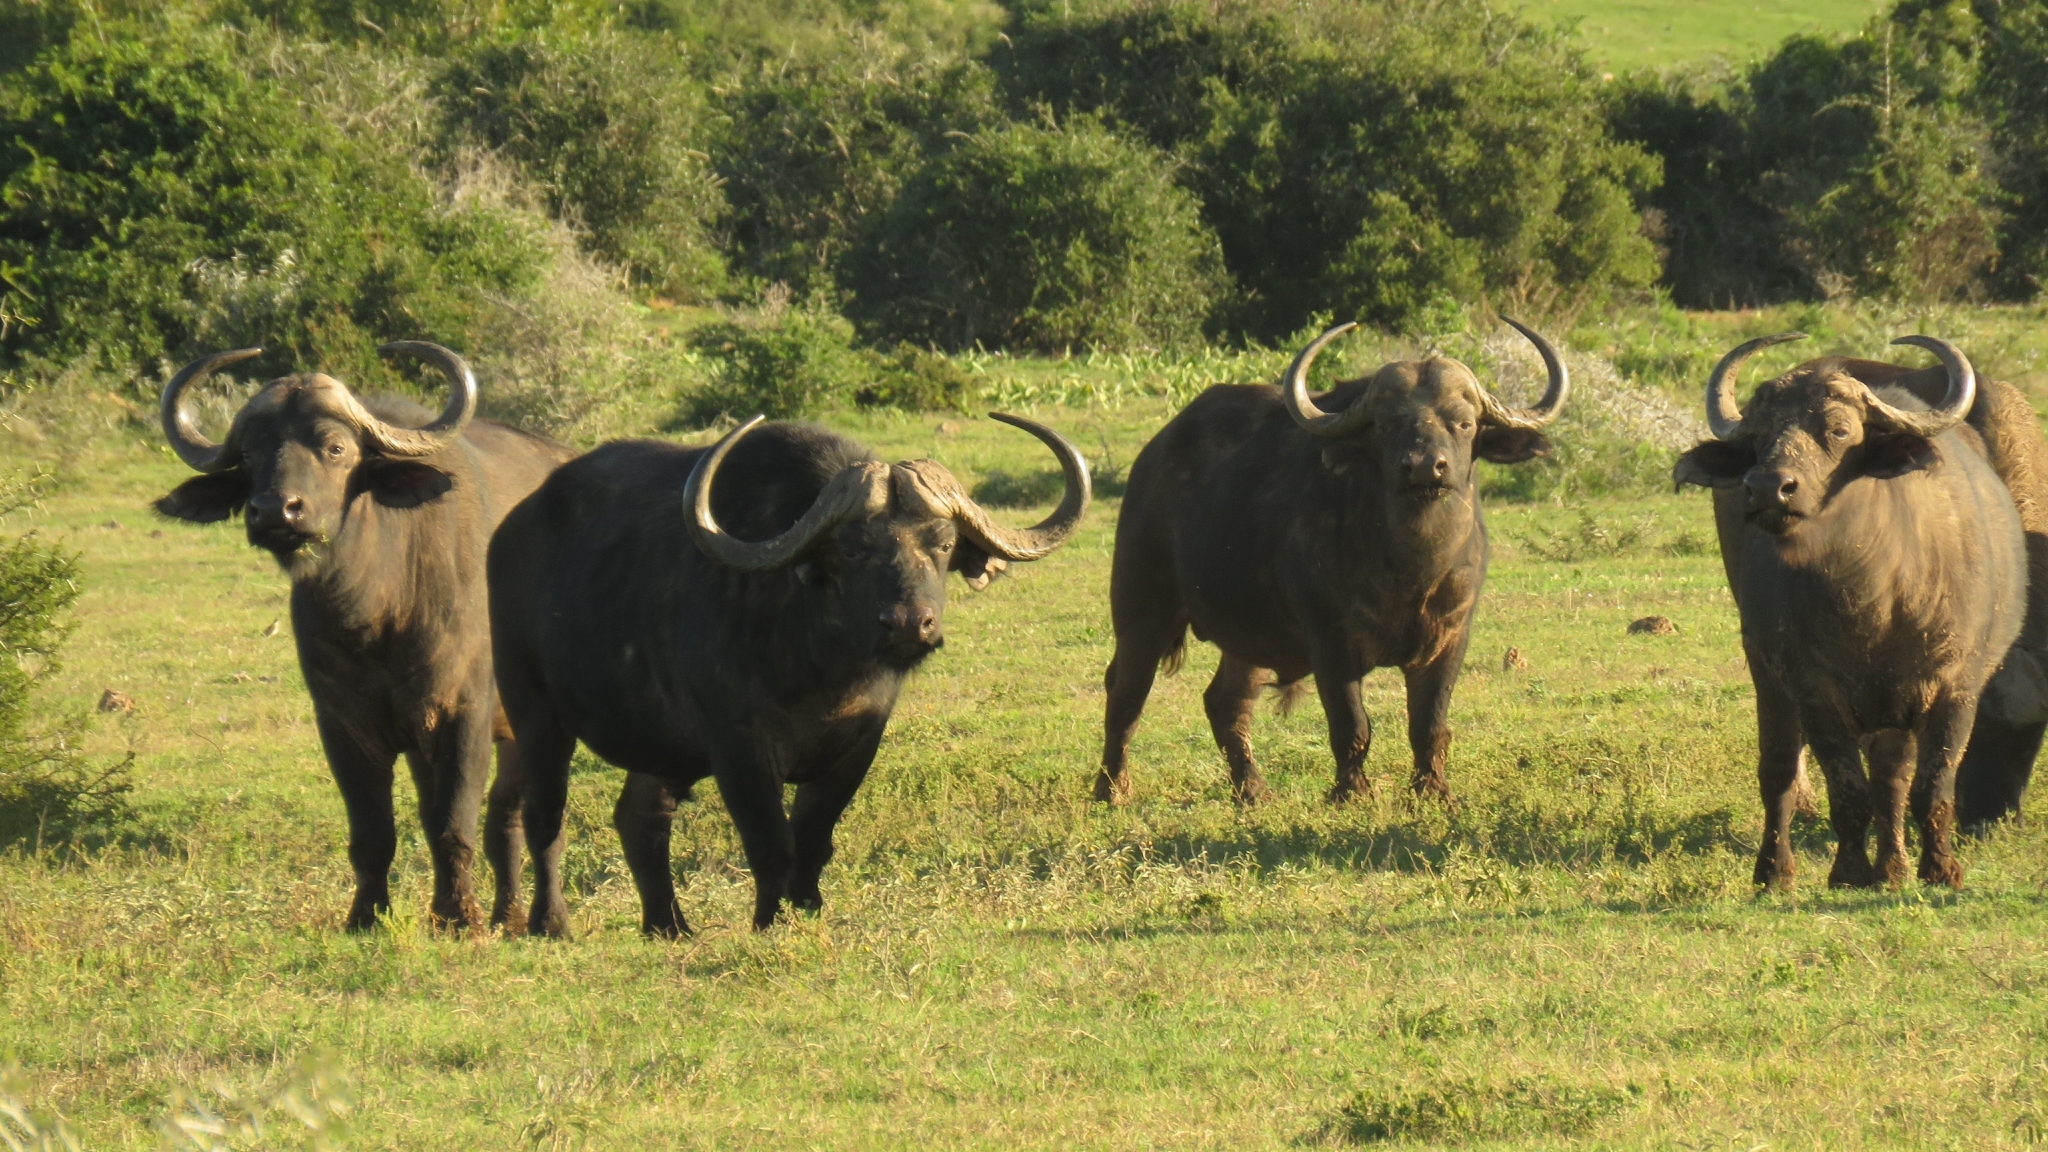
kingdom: Animalia
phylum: Chordata
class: Mammalia
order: Artiodactyla
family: Bovidae
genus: Syncerus
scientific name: Syncerus caffer
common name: African buffalo
